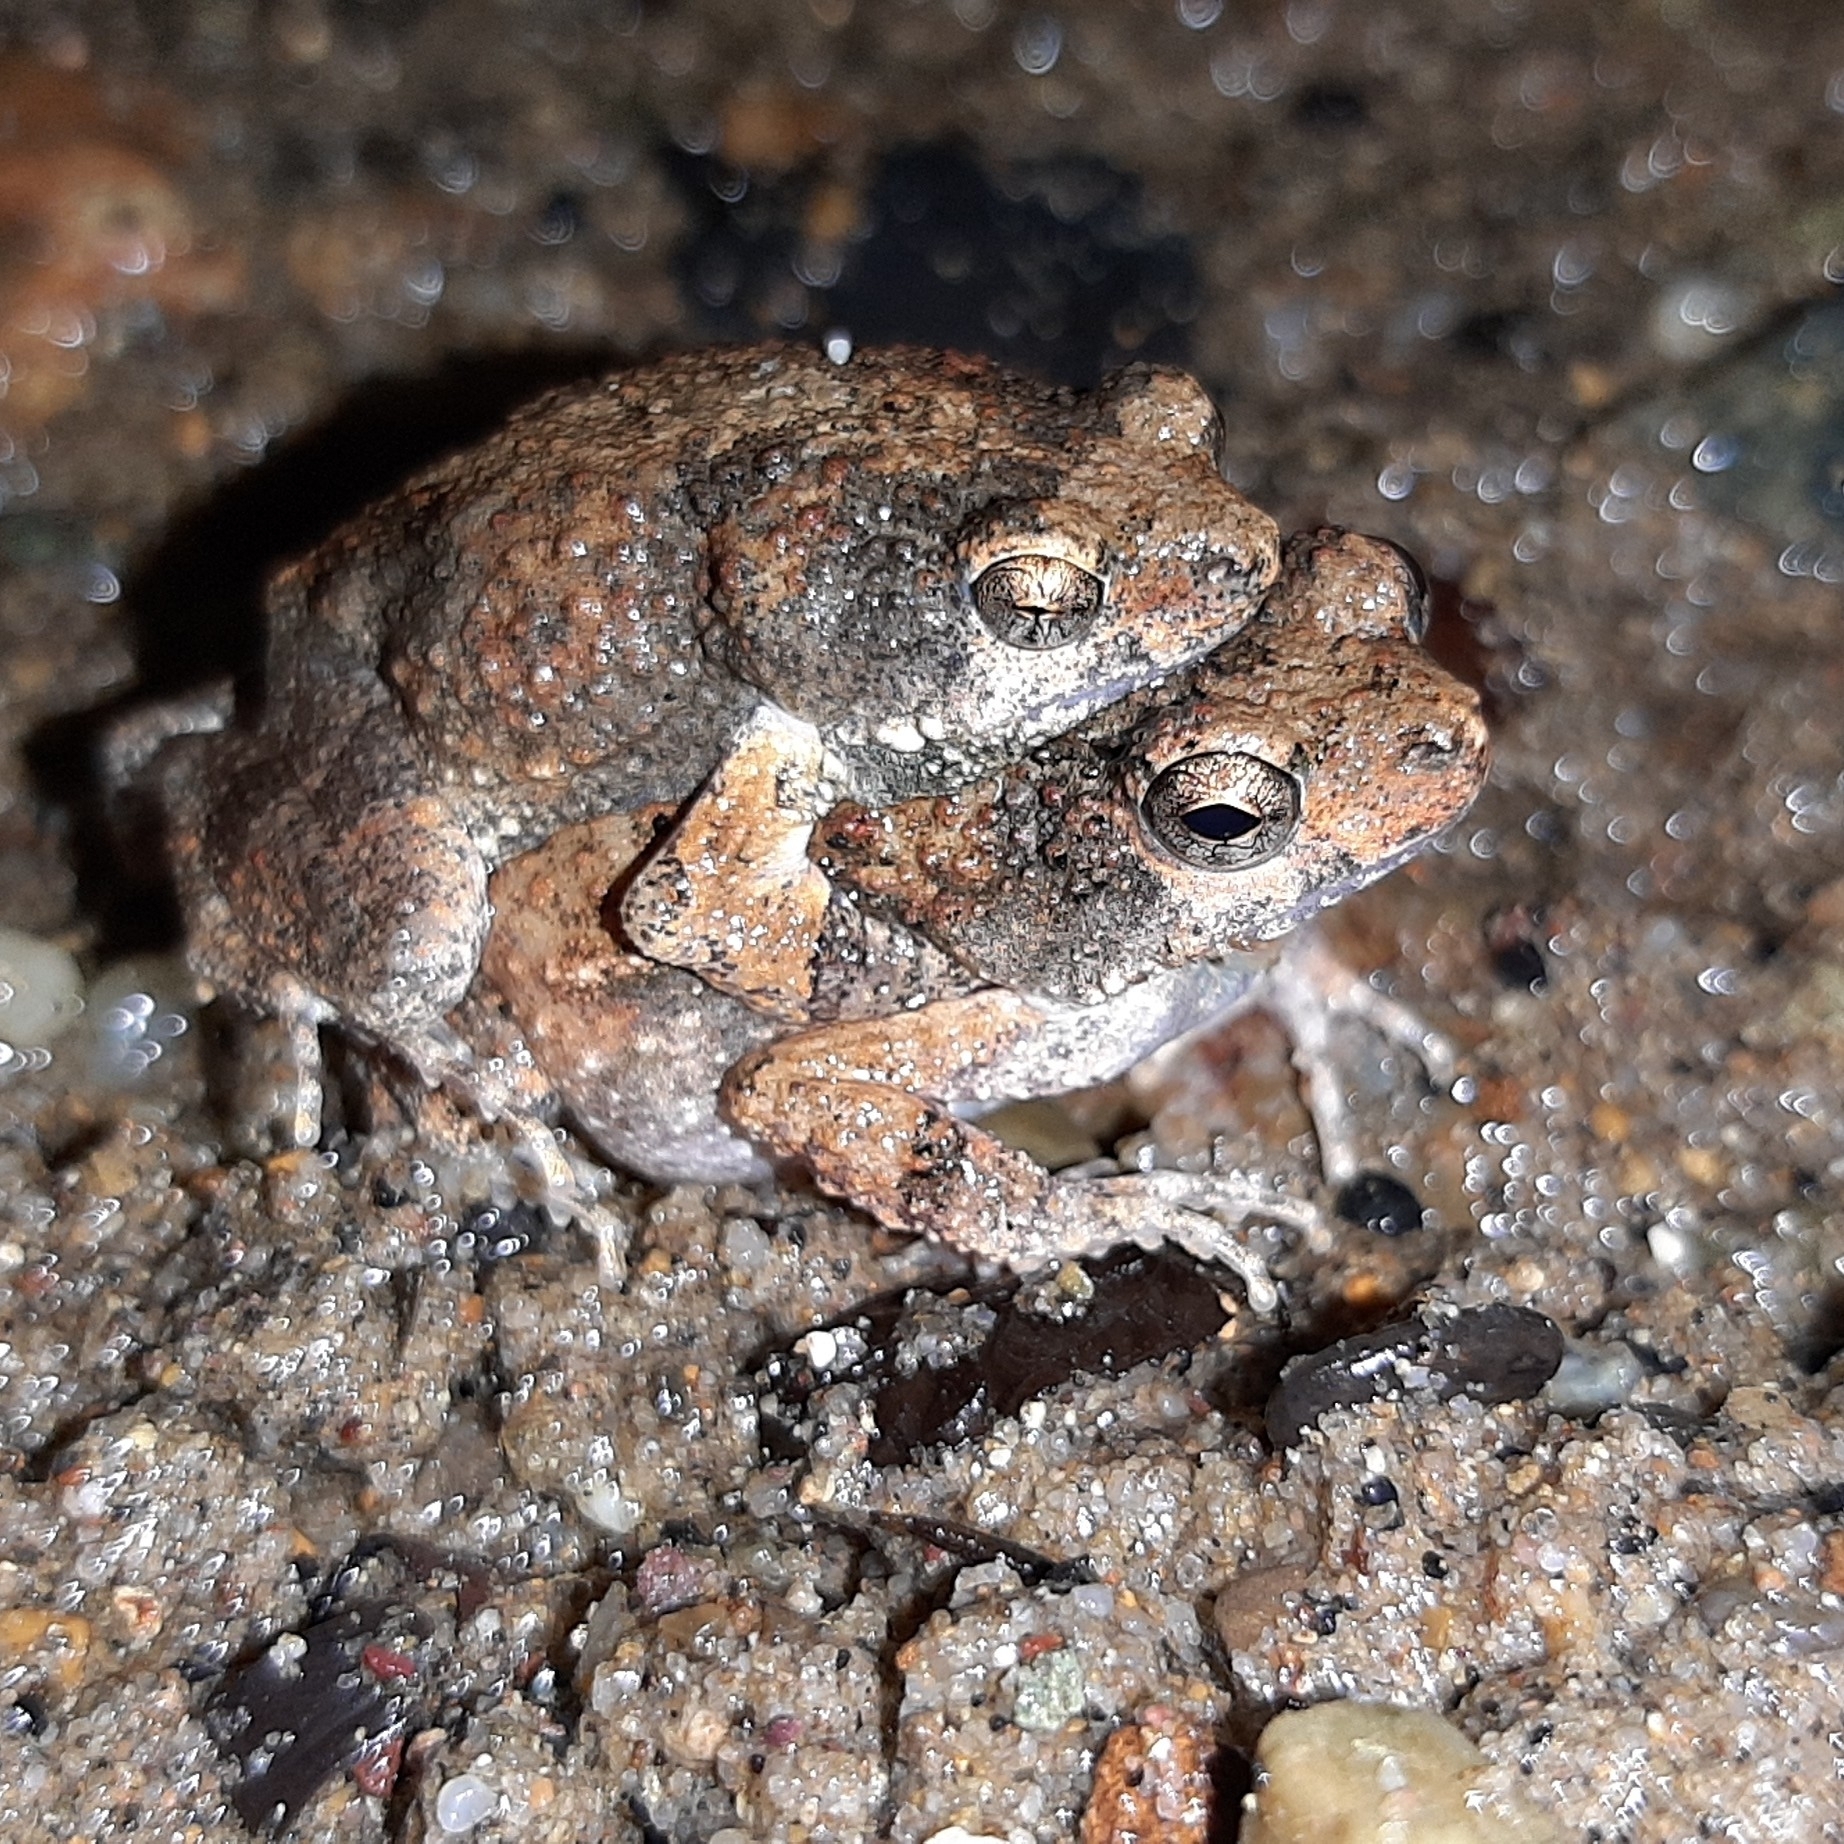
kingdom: Animalia
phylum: Chordata
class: Amphibia
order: Anura
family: Leptodactylidae
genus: Engystomops
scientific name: Engystomops pustulosus
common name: Tungara frog
